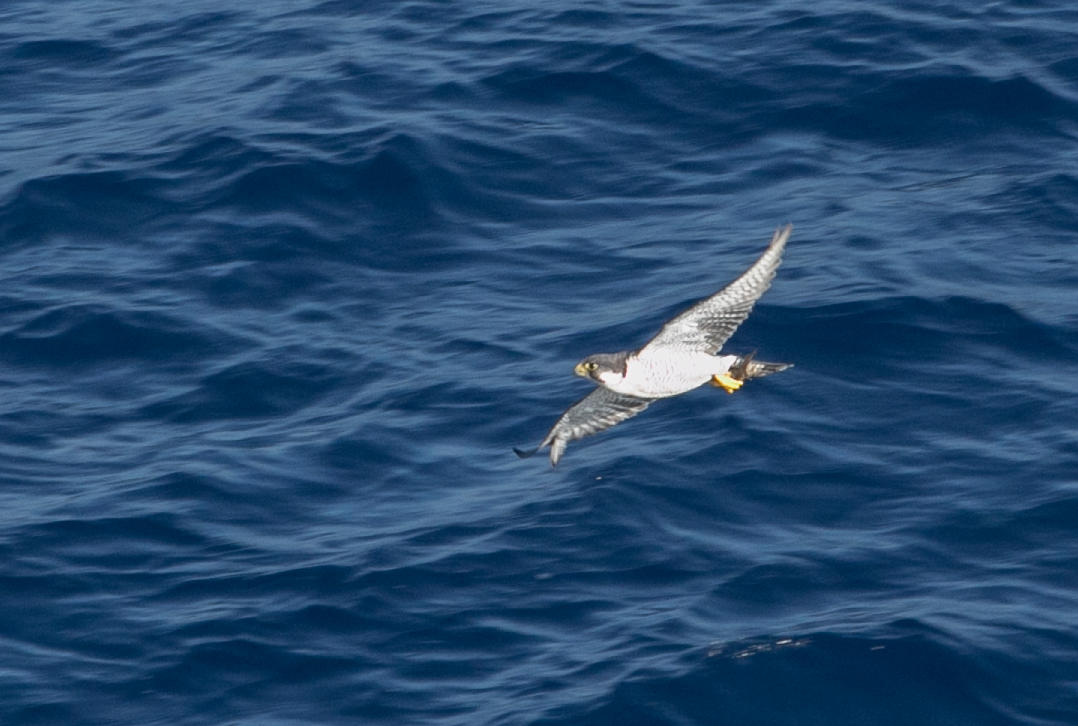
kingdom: Animalia
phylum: Chordata
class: Aves
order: Falconiformes
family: Falconidae
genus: Falco
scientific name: Falco peregrinus
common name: Peregrine falcon
